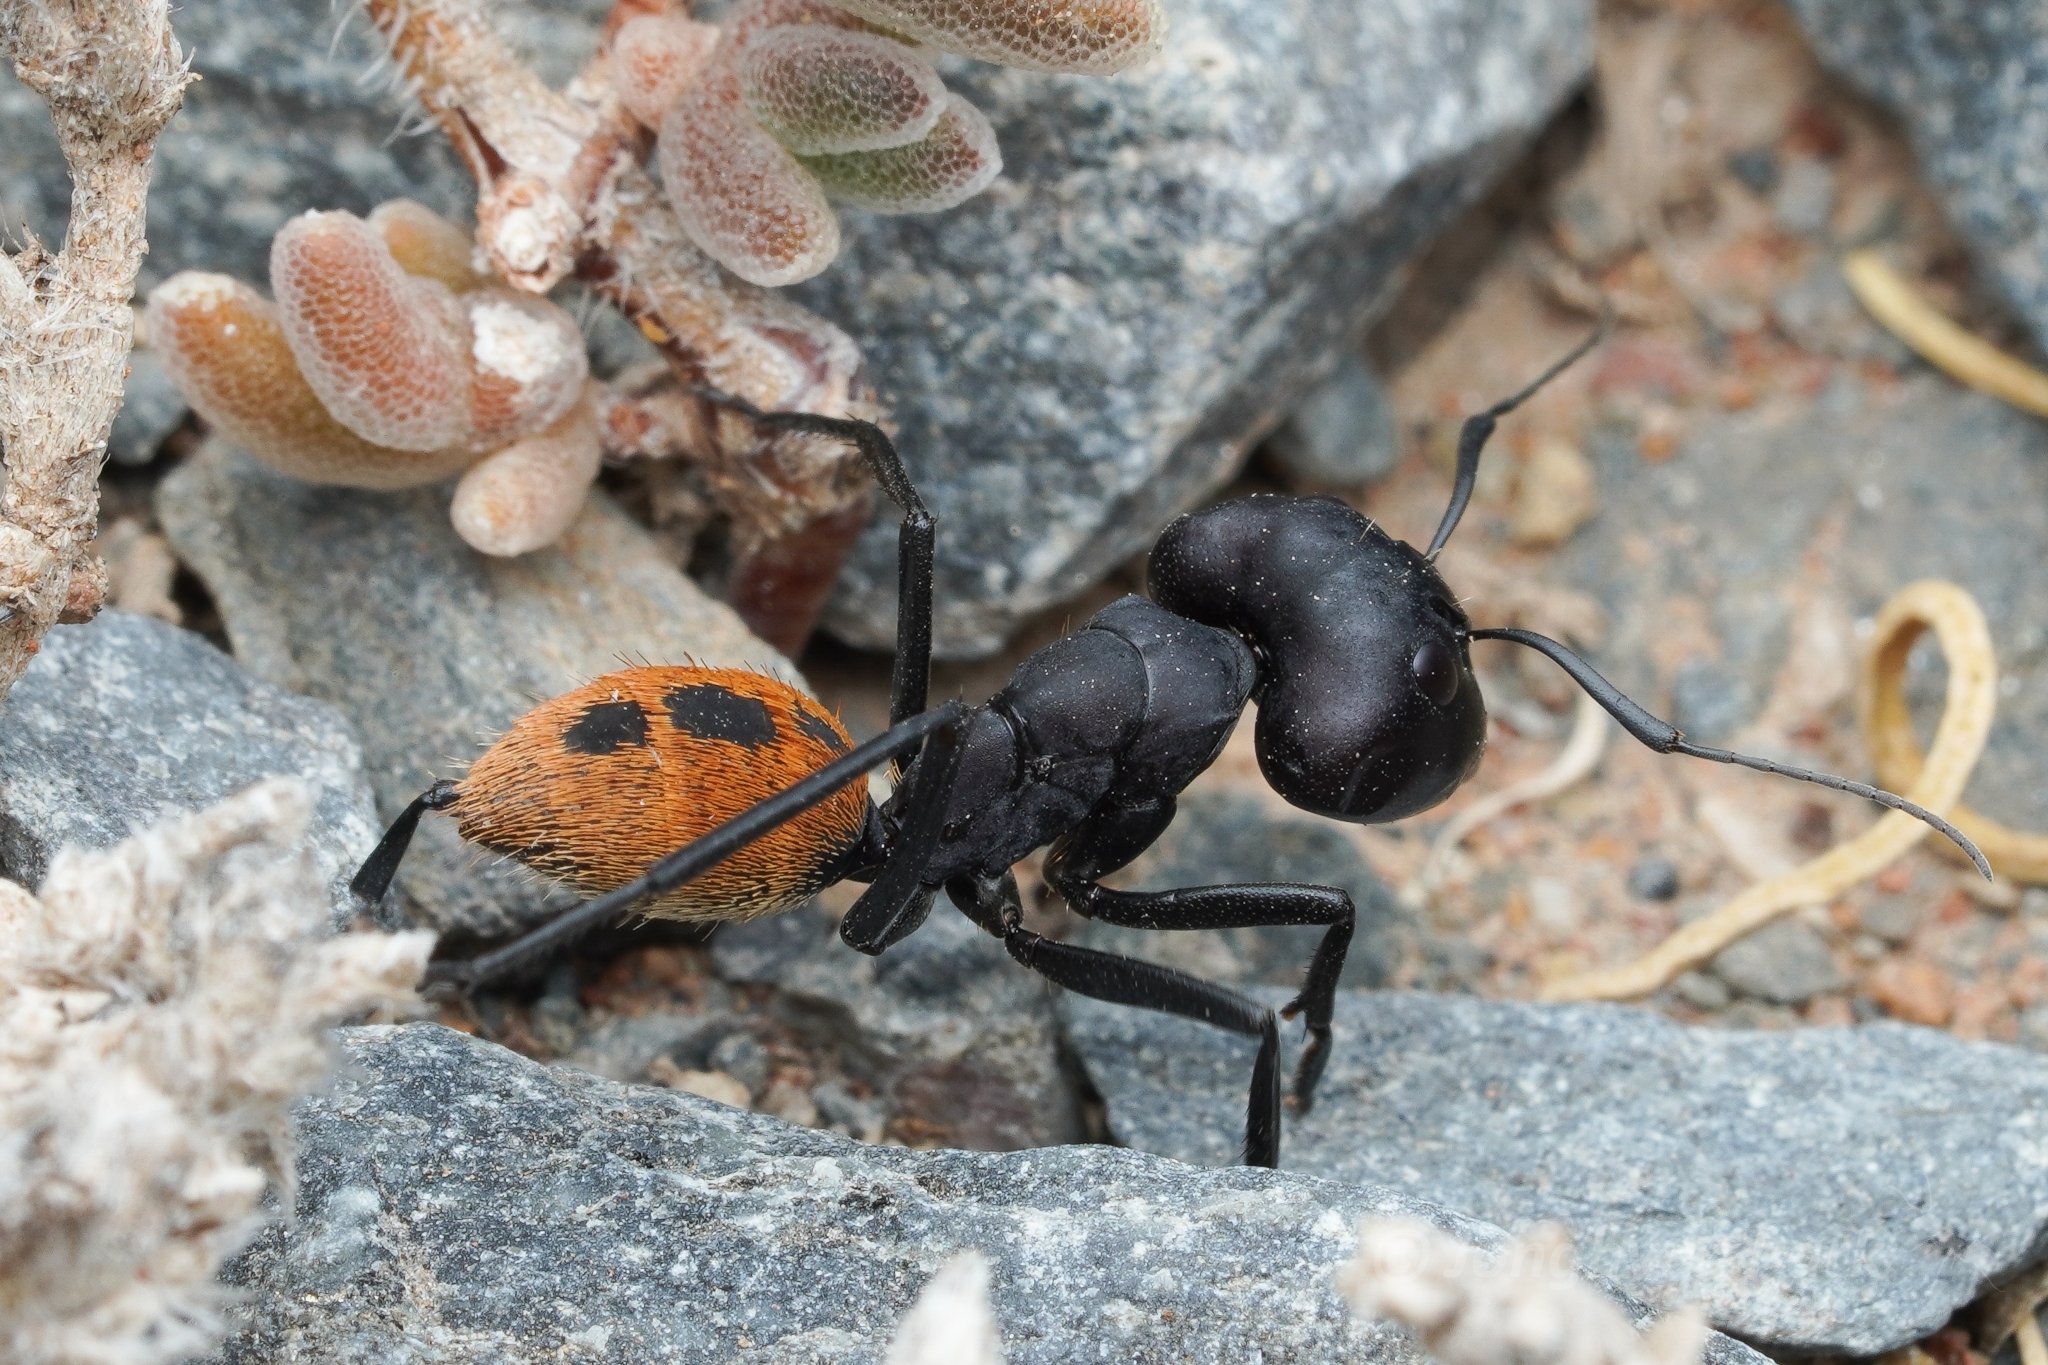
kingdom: Animalia
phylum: Arthropoda
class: Insecta
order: Hymenoptera
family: Formicidae
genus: Camponotus
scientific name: Camponotus fulvopilosus
